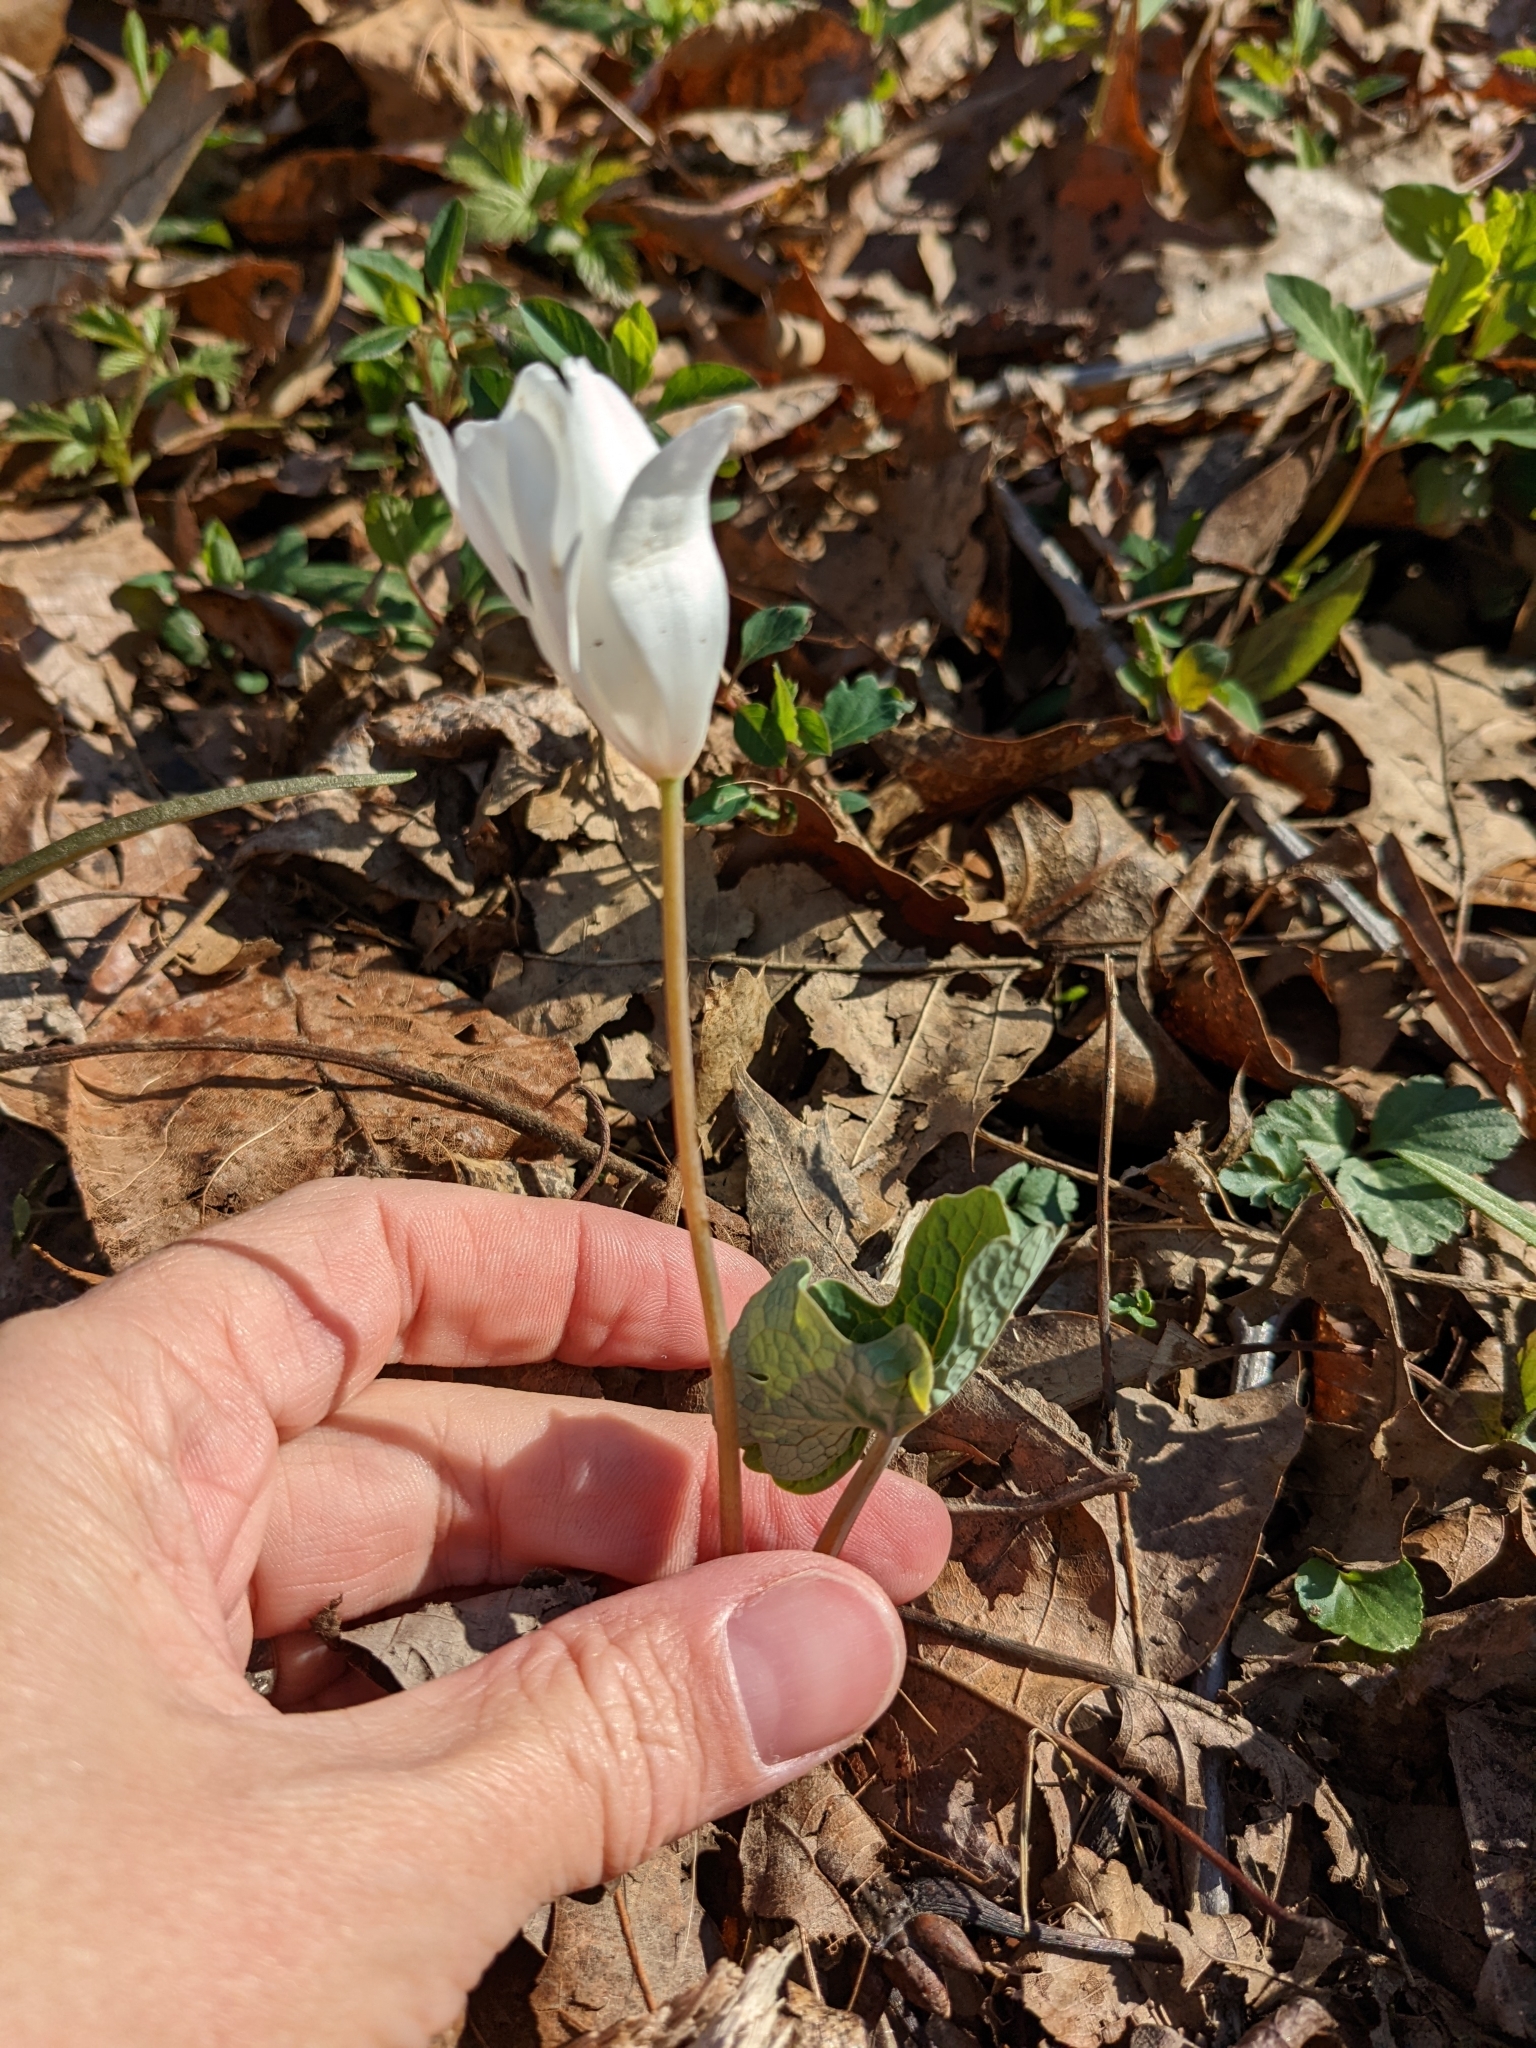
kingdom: Plantae
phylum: Tracheophyta
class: Magnoliopsida
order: Ranunculales
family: Papaveraceae
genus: Sanguinaria
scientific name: Sanguinaria canadensis
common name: Bloodroot
